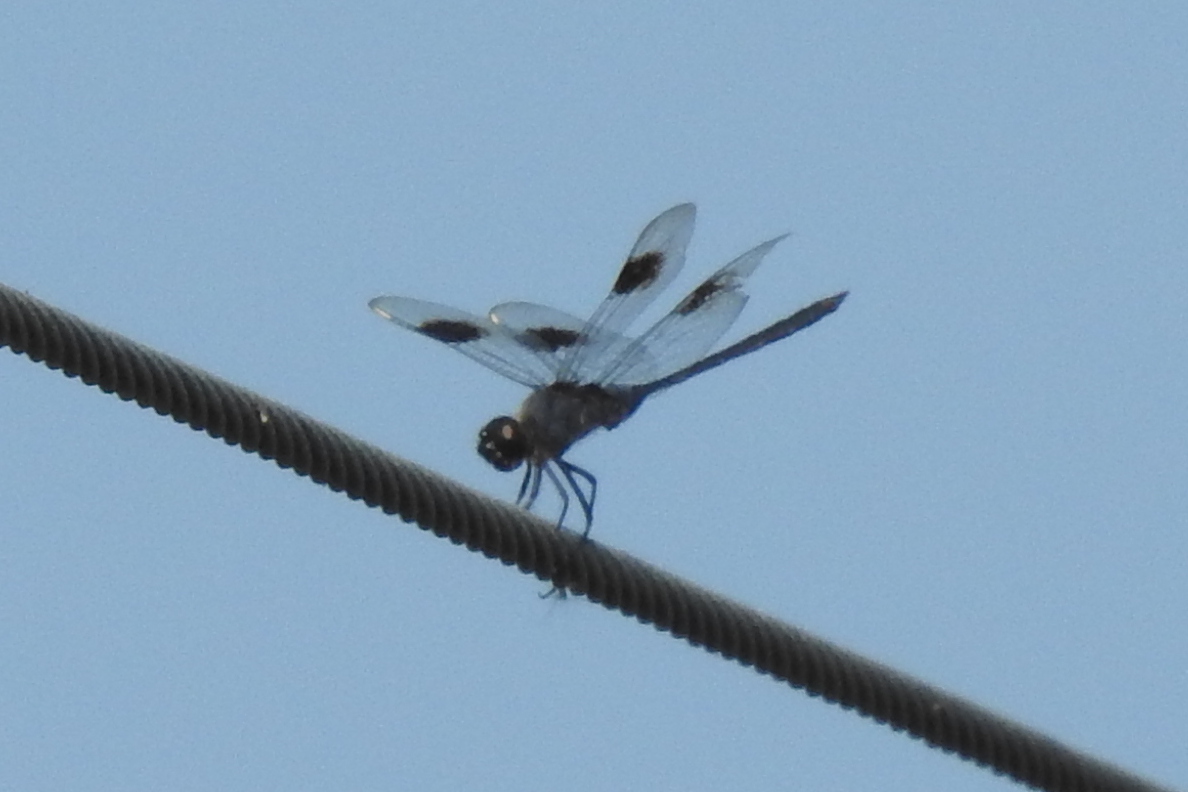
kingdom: Animalia
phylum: Arthropoda
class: Insecta
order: Odonata
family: Libellulidae
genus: Brachymesia
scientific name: Brachymesia gravida
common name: Four-spotted pennant
